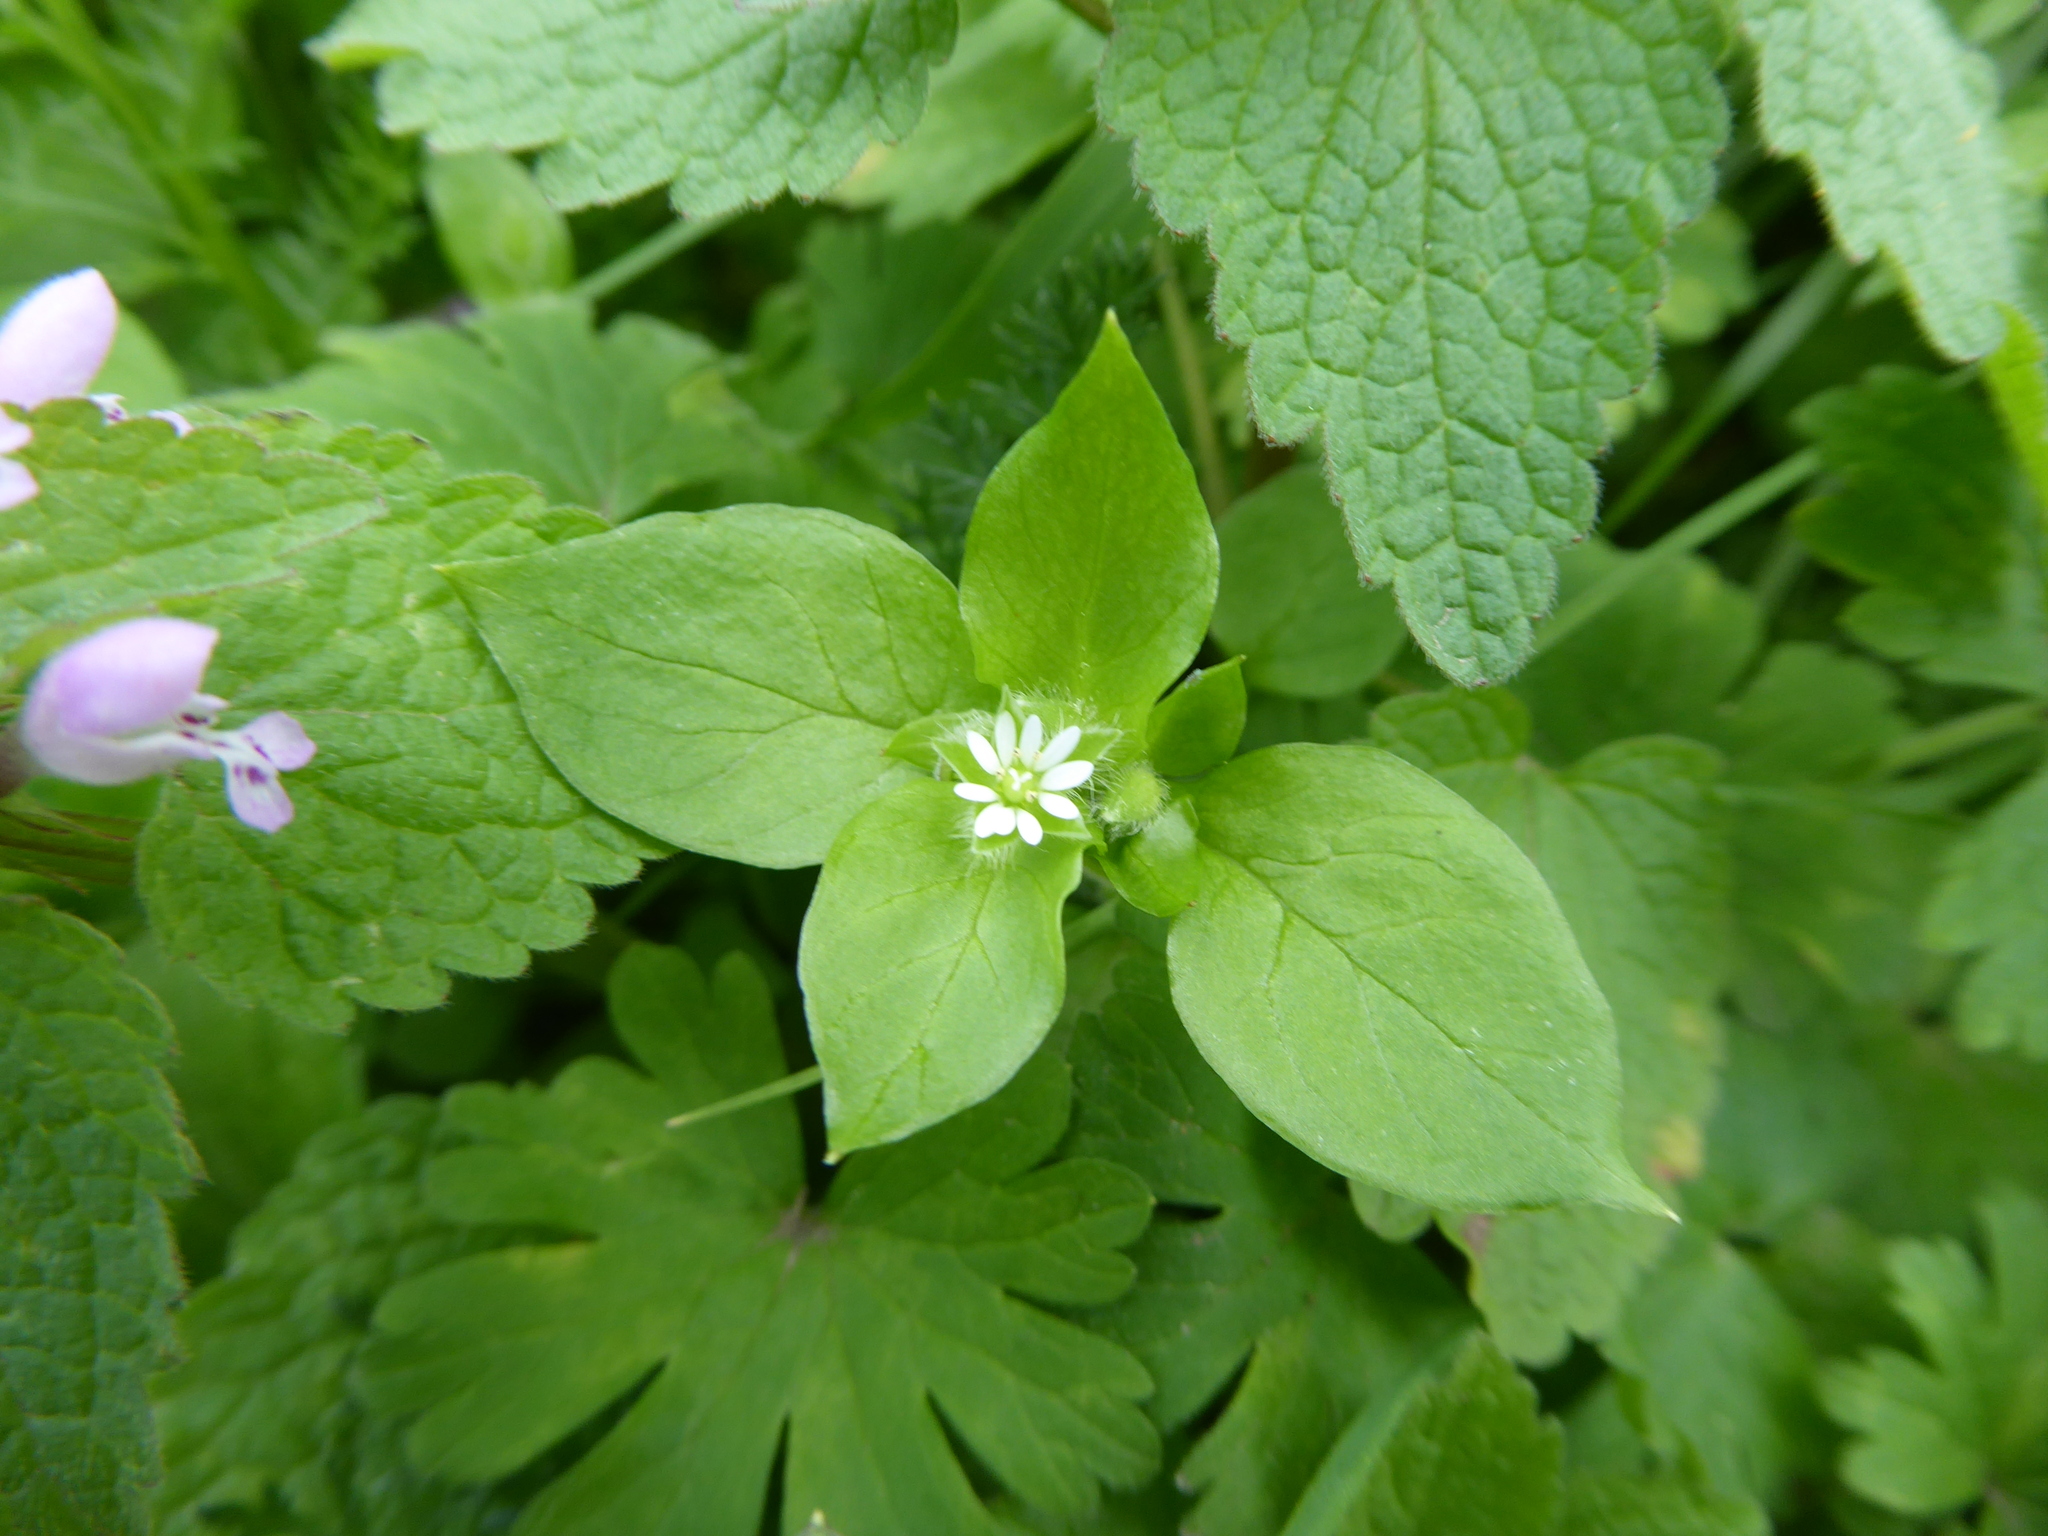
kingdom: Plantae
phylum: Tracheophyta
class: Magnoliopsida
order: Caryophyllales
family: Caryophyllaceae
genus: Stellaria
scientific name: Stellaria media
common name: Common chickweed
